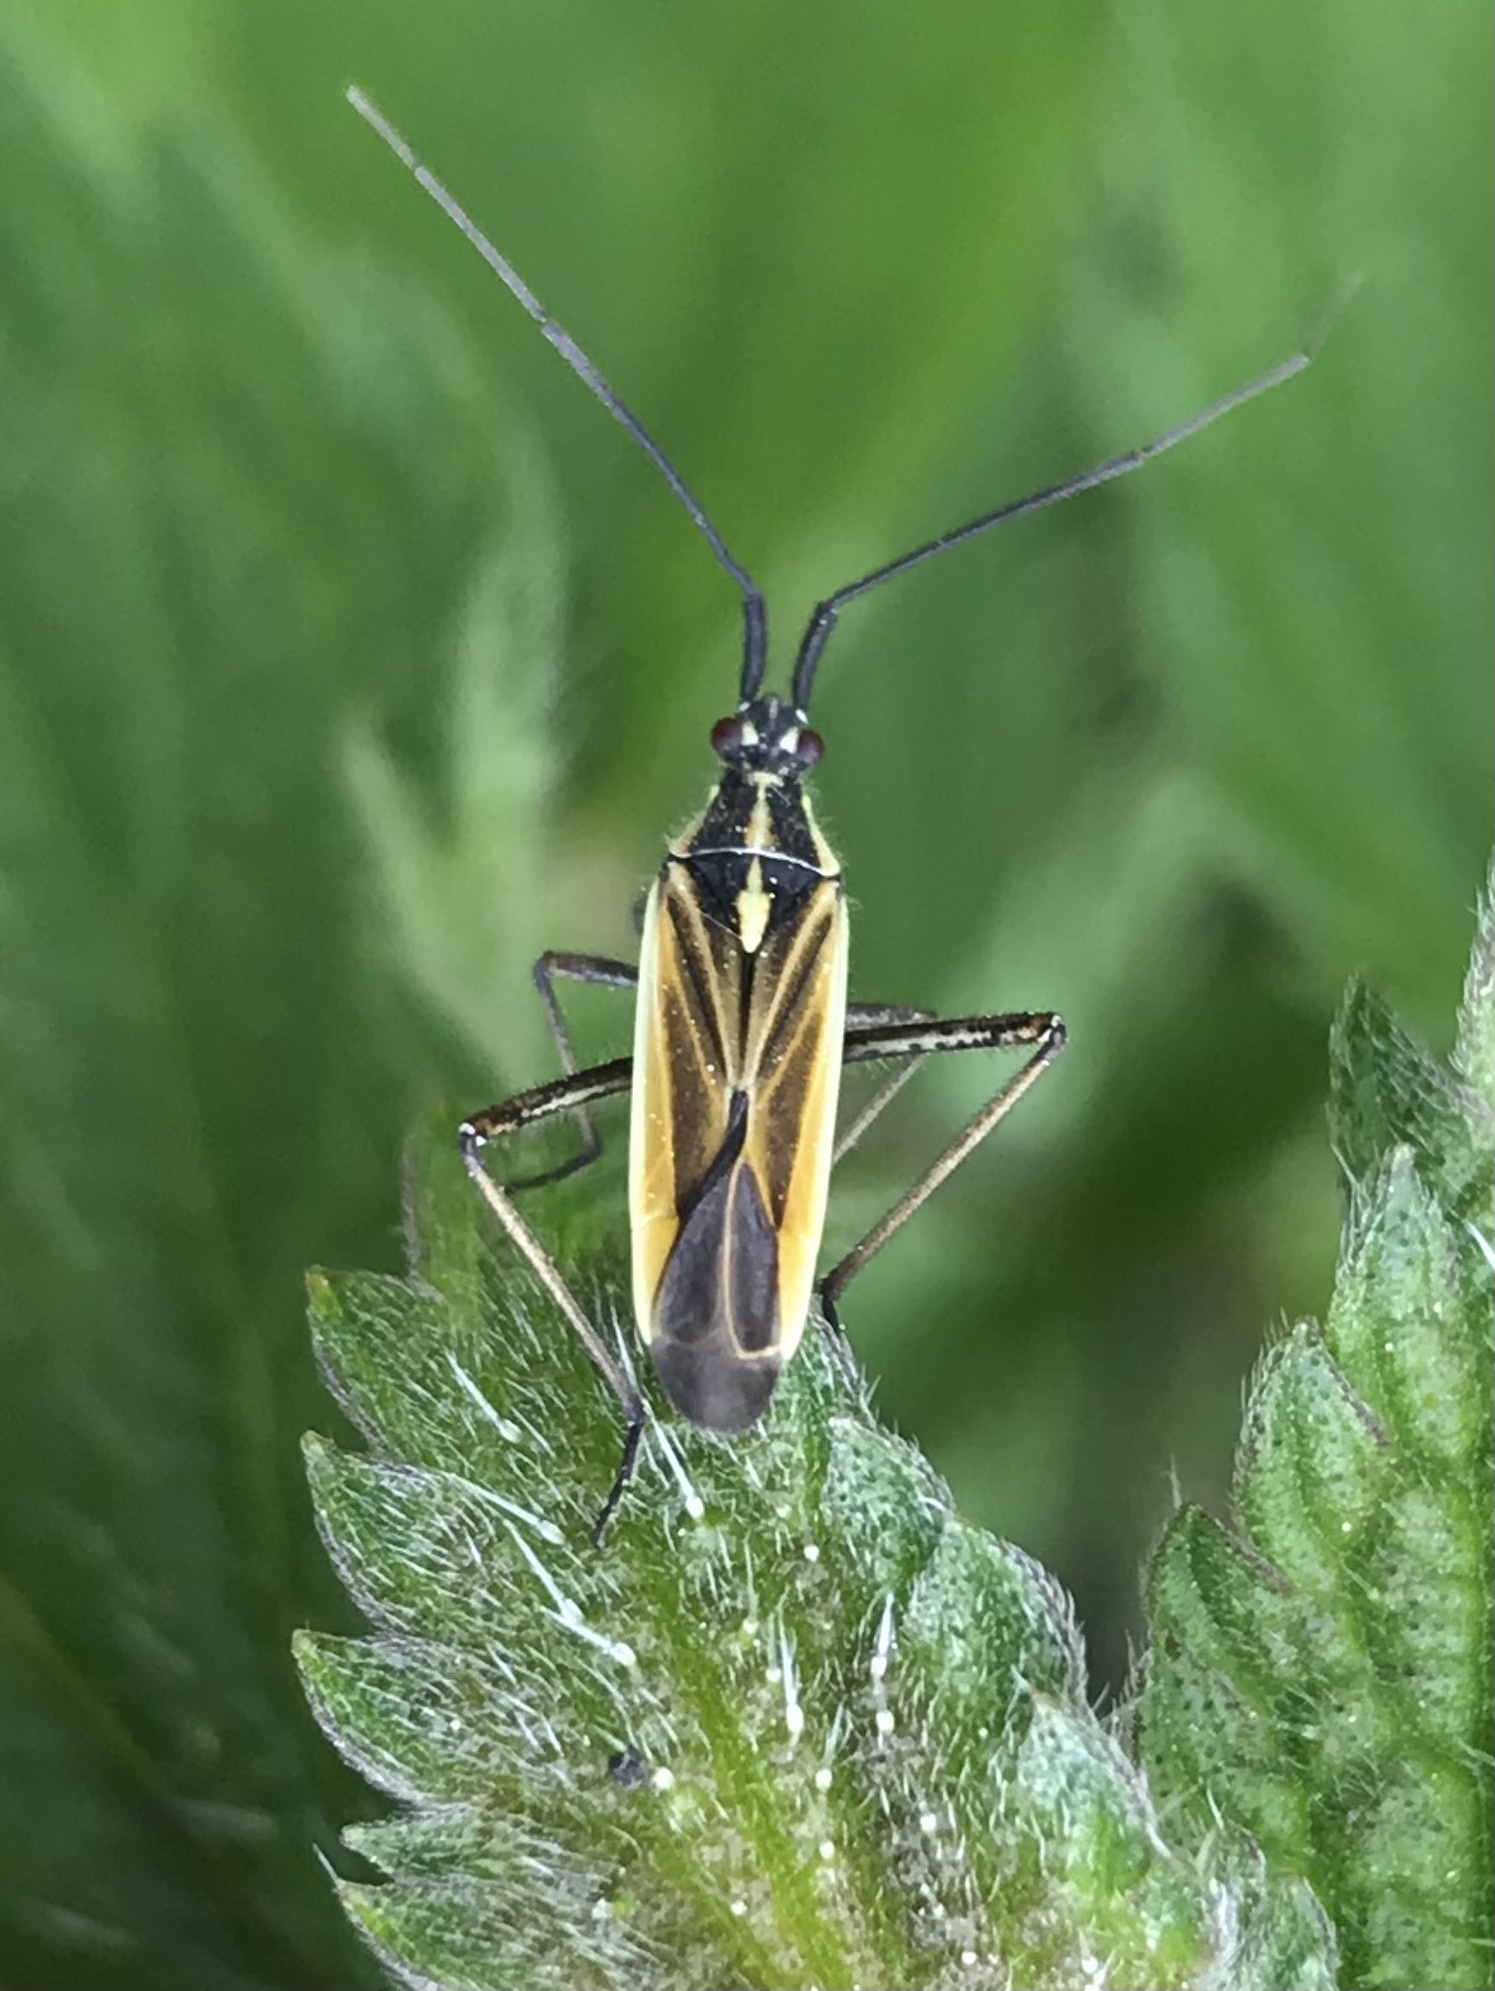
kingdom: Animalia
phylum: Arthropoda
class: Insecta
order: Hemiptera
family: Miridae
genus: Leptopterna
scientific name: Leptopterna dolabrata
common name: Meadow plant bug
